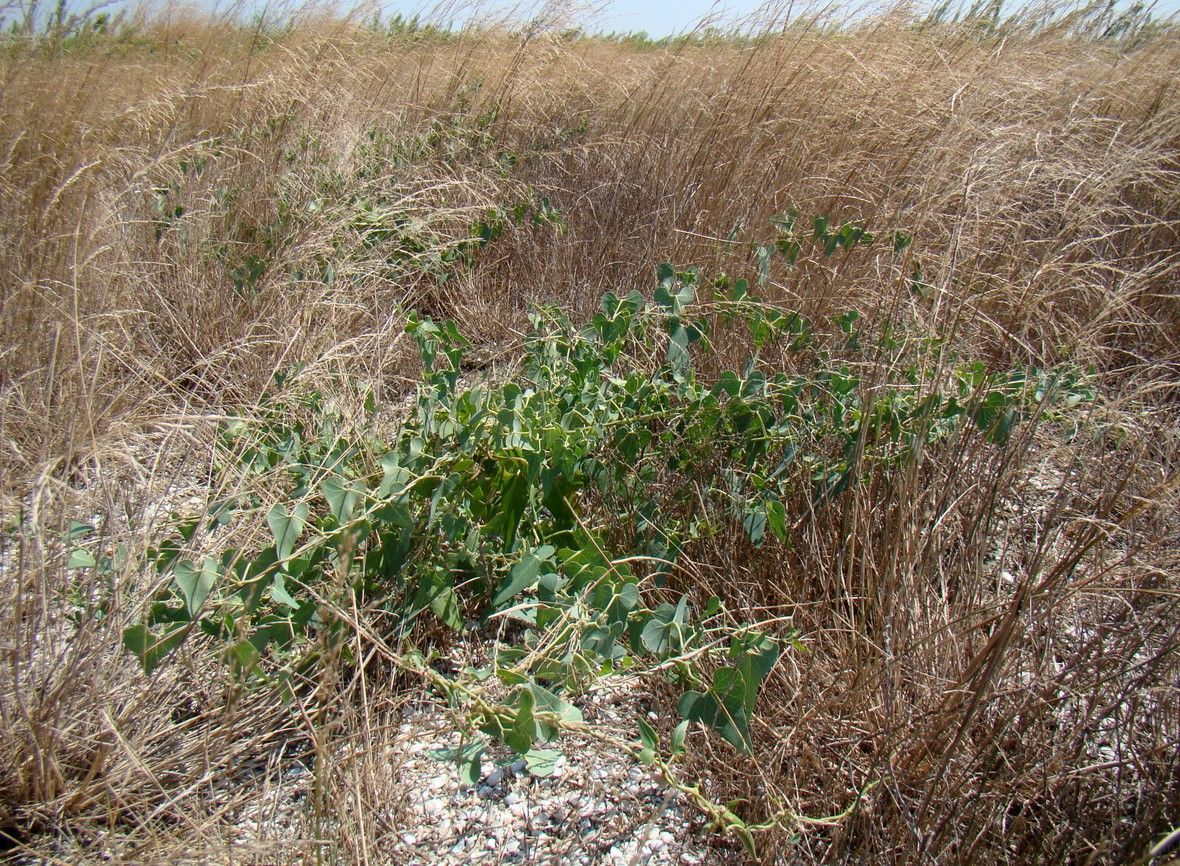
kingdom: Plantae
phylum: Tracheophyta
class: Magnoliopsida
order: Gentianales
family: Apocynaceae
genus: Cynanchum
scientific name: Cynanchum acutum
